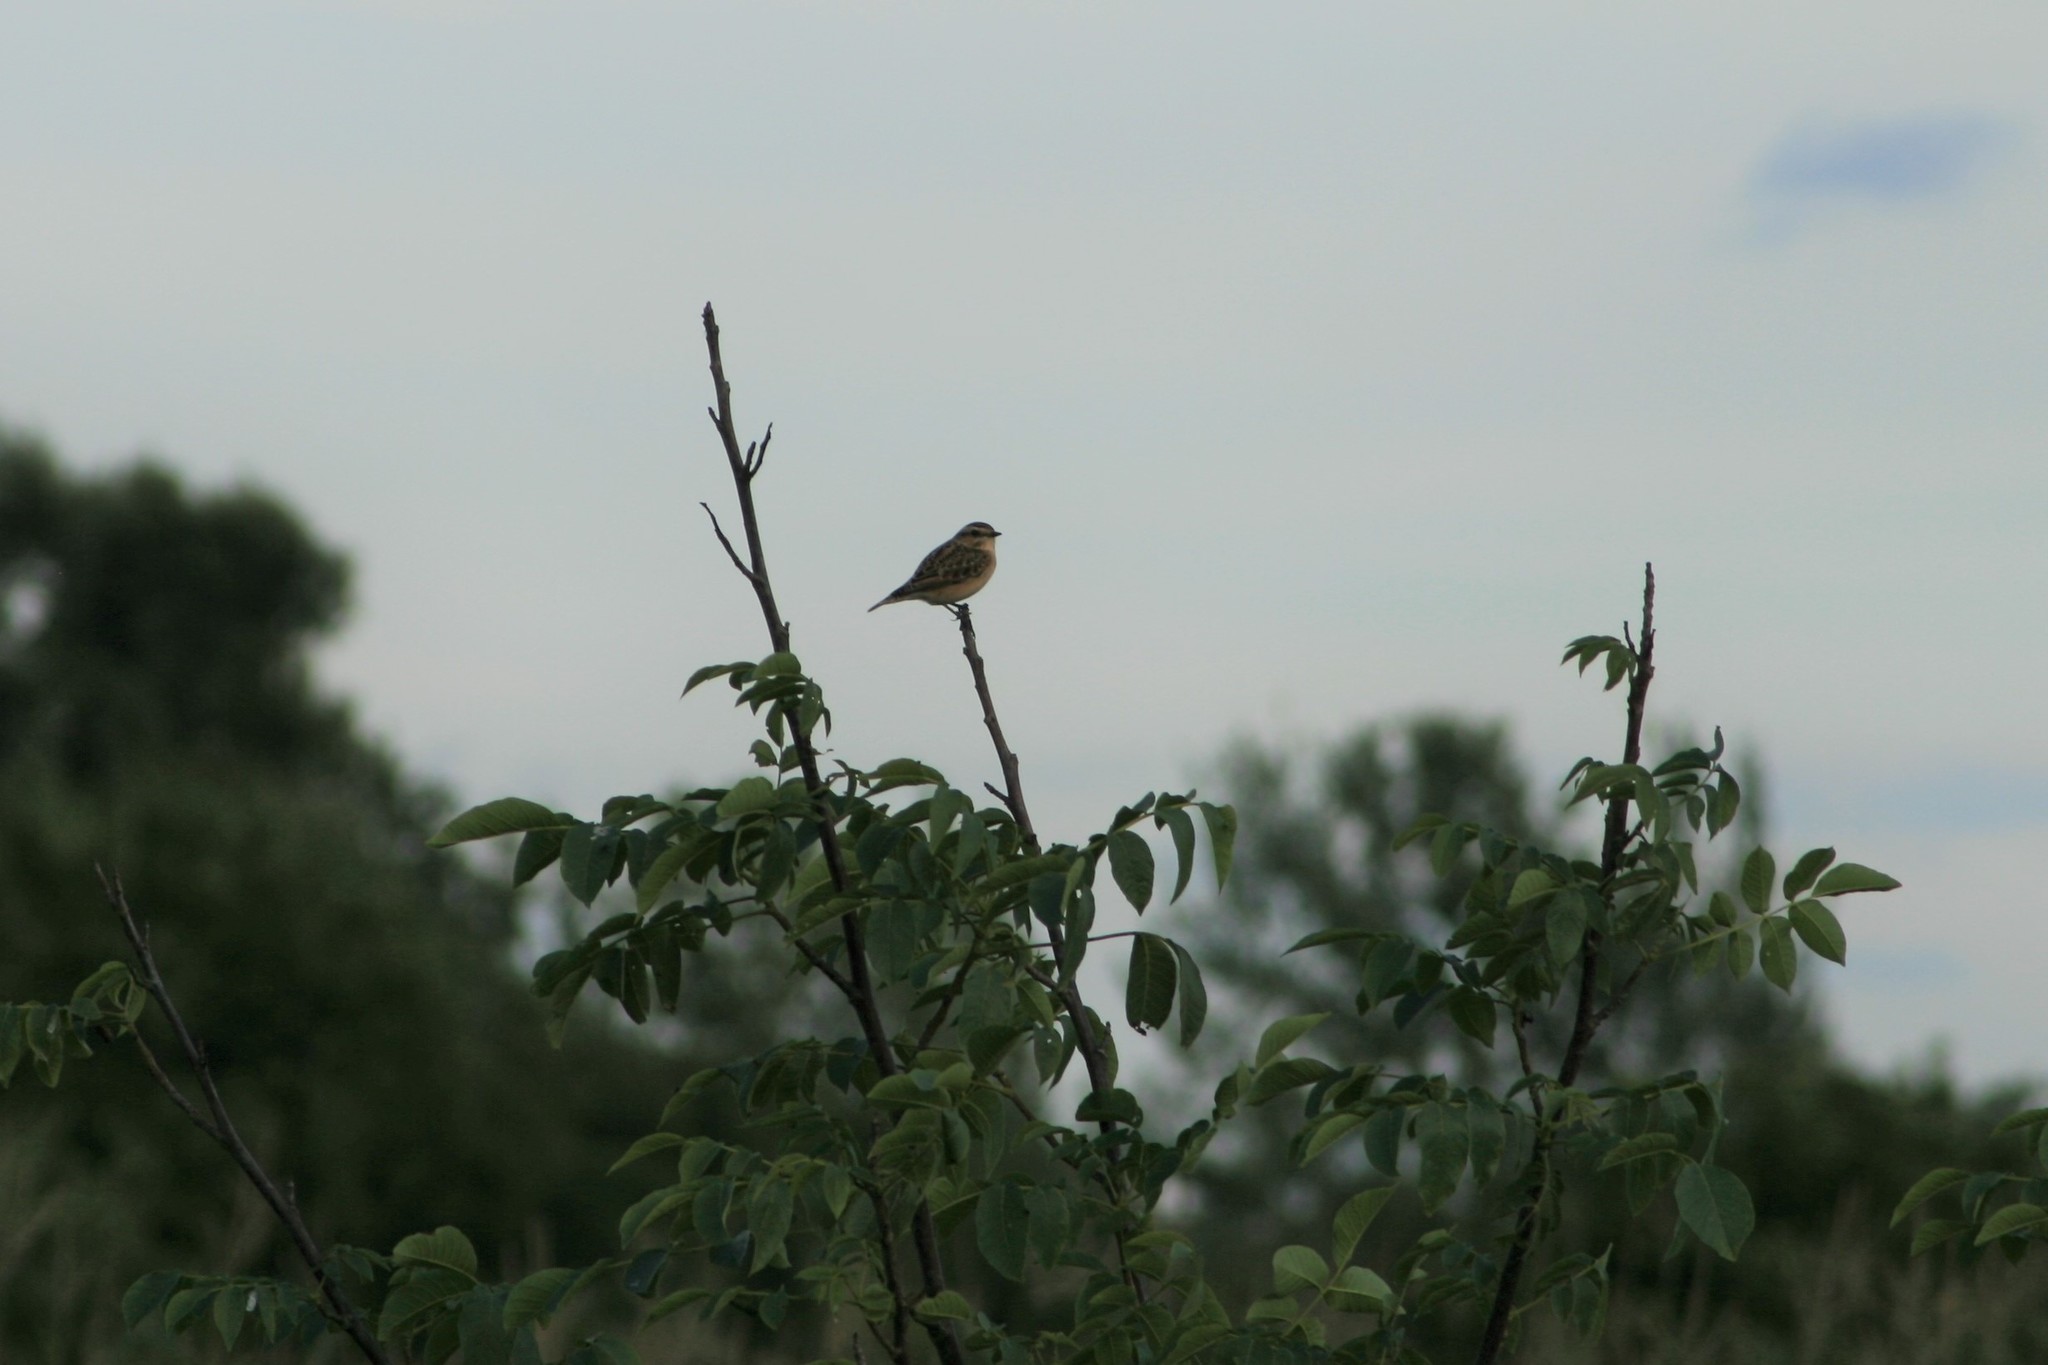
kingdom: Animalia
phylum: Chordata
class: Aves
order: Passeriformes
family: Muscicapidae
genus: Saxicola
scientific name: Saxicola rubetra
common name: Whinchat
